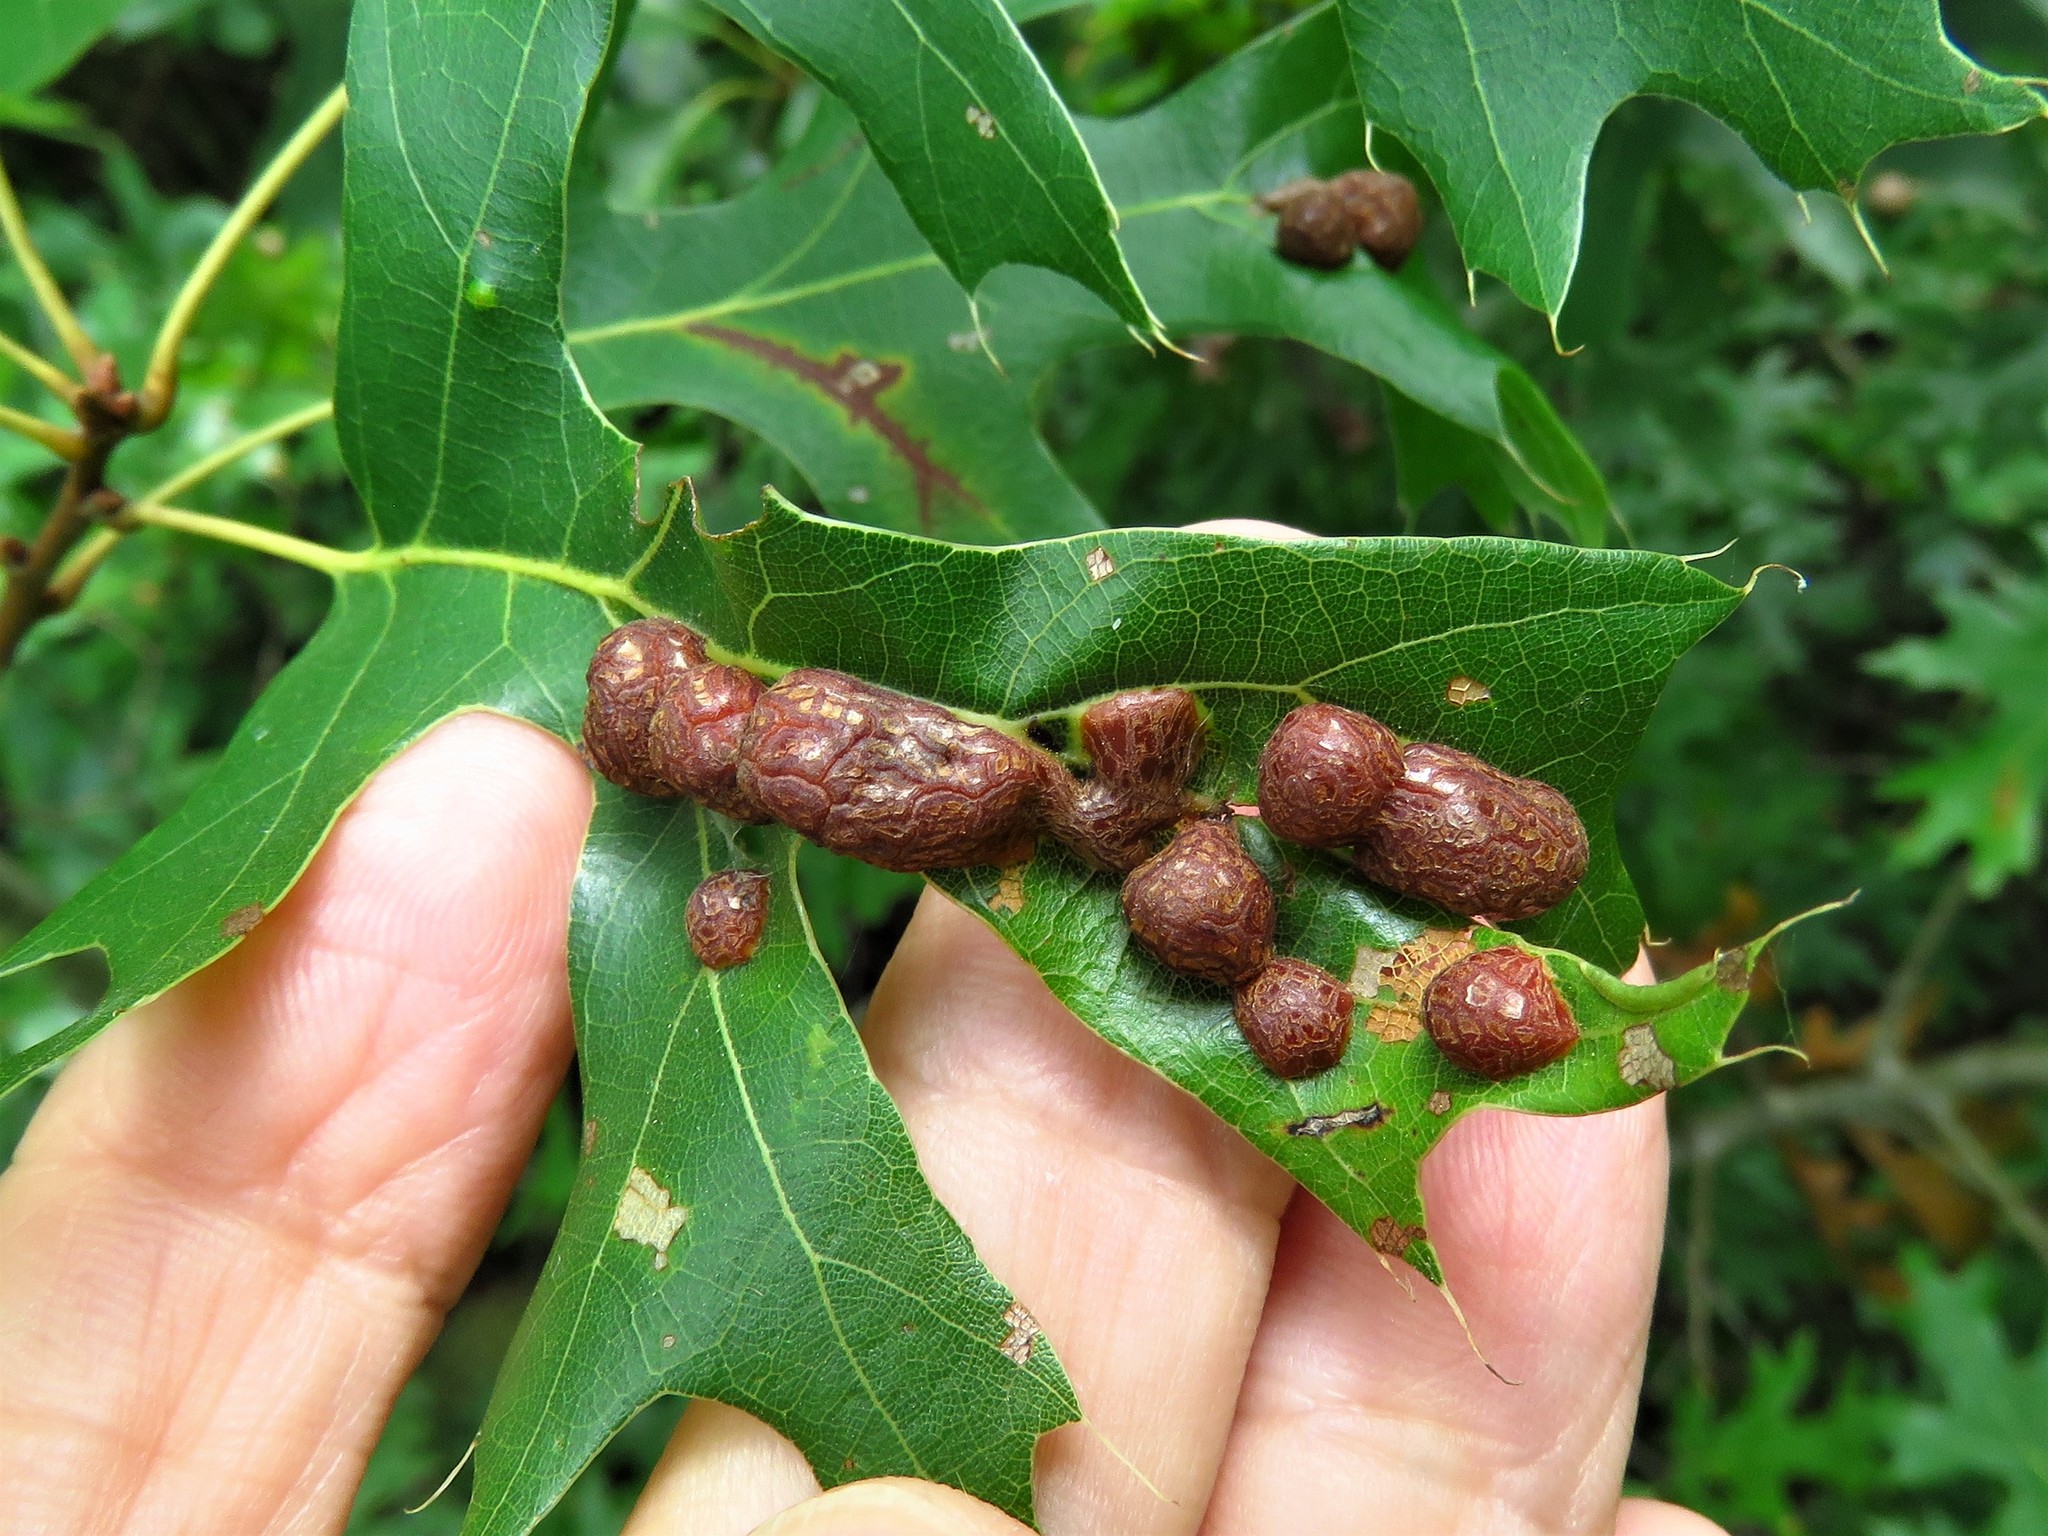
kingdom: Animalia
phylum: Arthropoda
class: Insecta
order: Diptera
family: Cecidomyiidae
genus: Polystepha
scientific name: Polystepha pilulae
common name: Oak leaf gall midge
